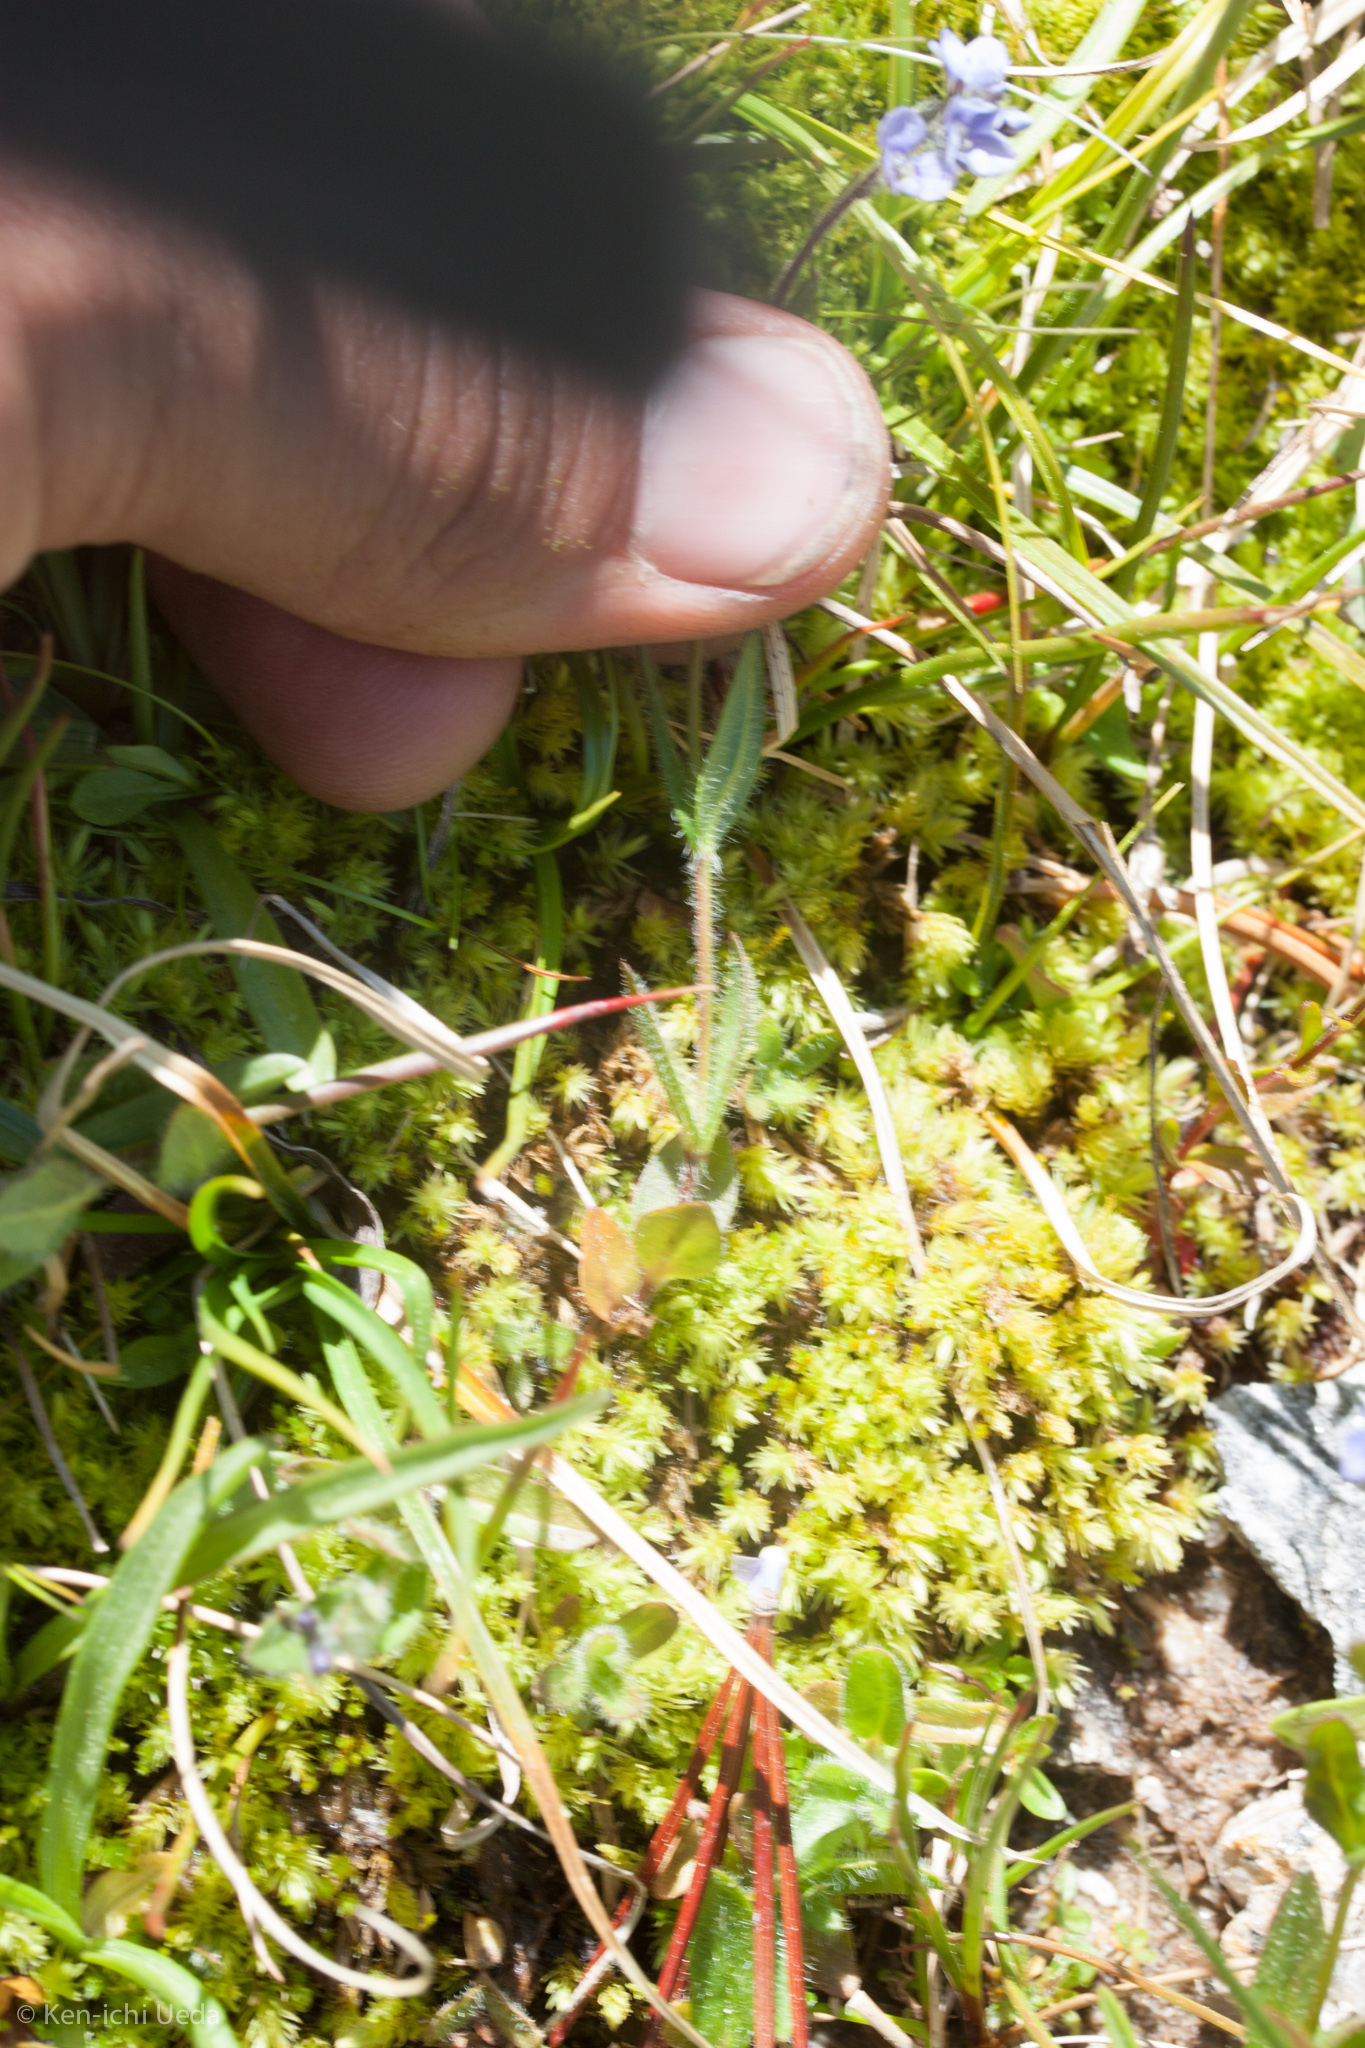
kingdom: Plantae
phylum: Tracheophyta
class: Magnoliopsida
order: Lamiales
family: Plantaginaceae
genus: Veronica
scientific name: Veronica wormskjoldii
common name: American alpine speedwell
